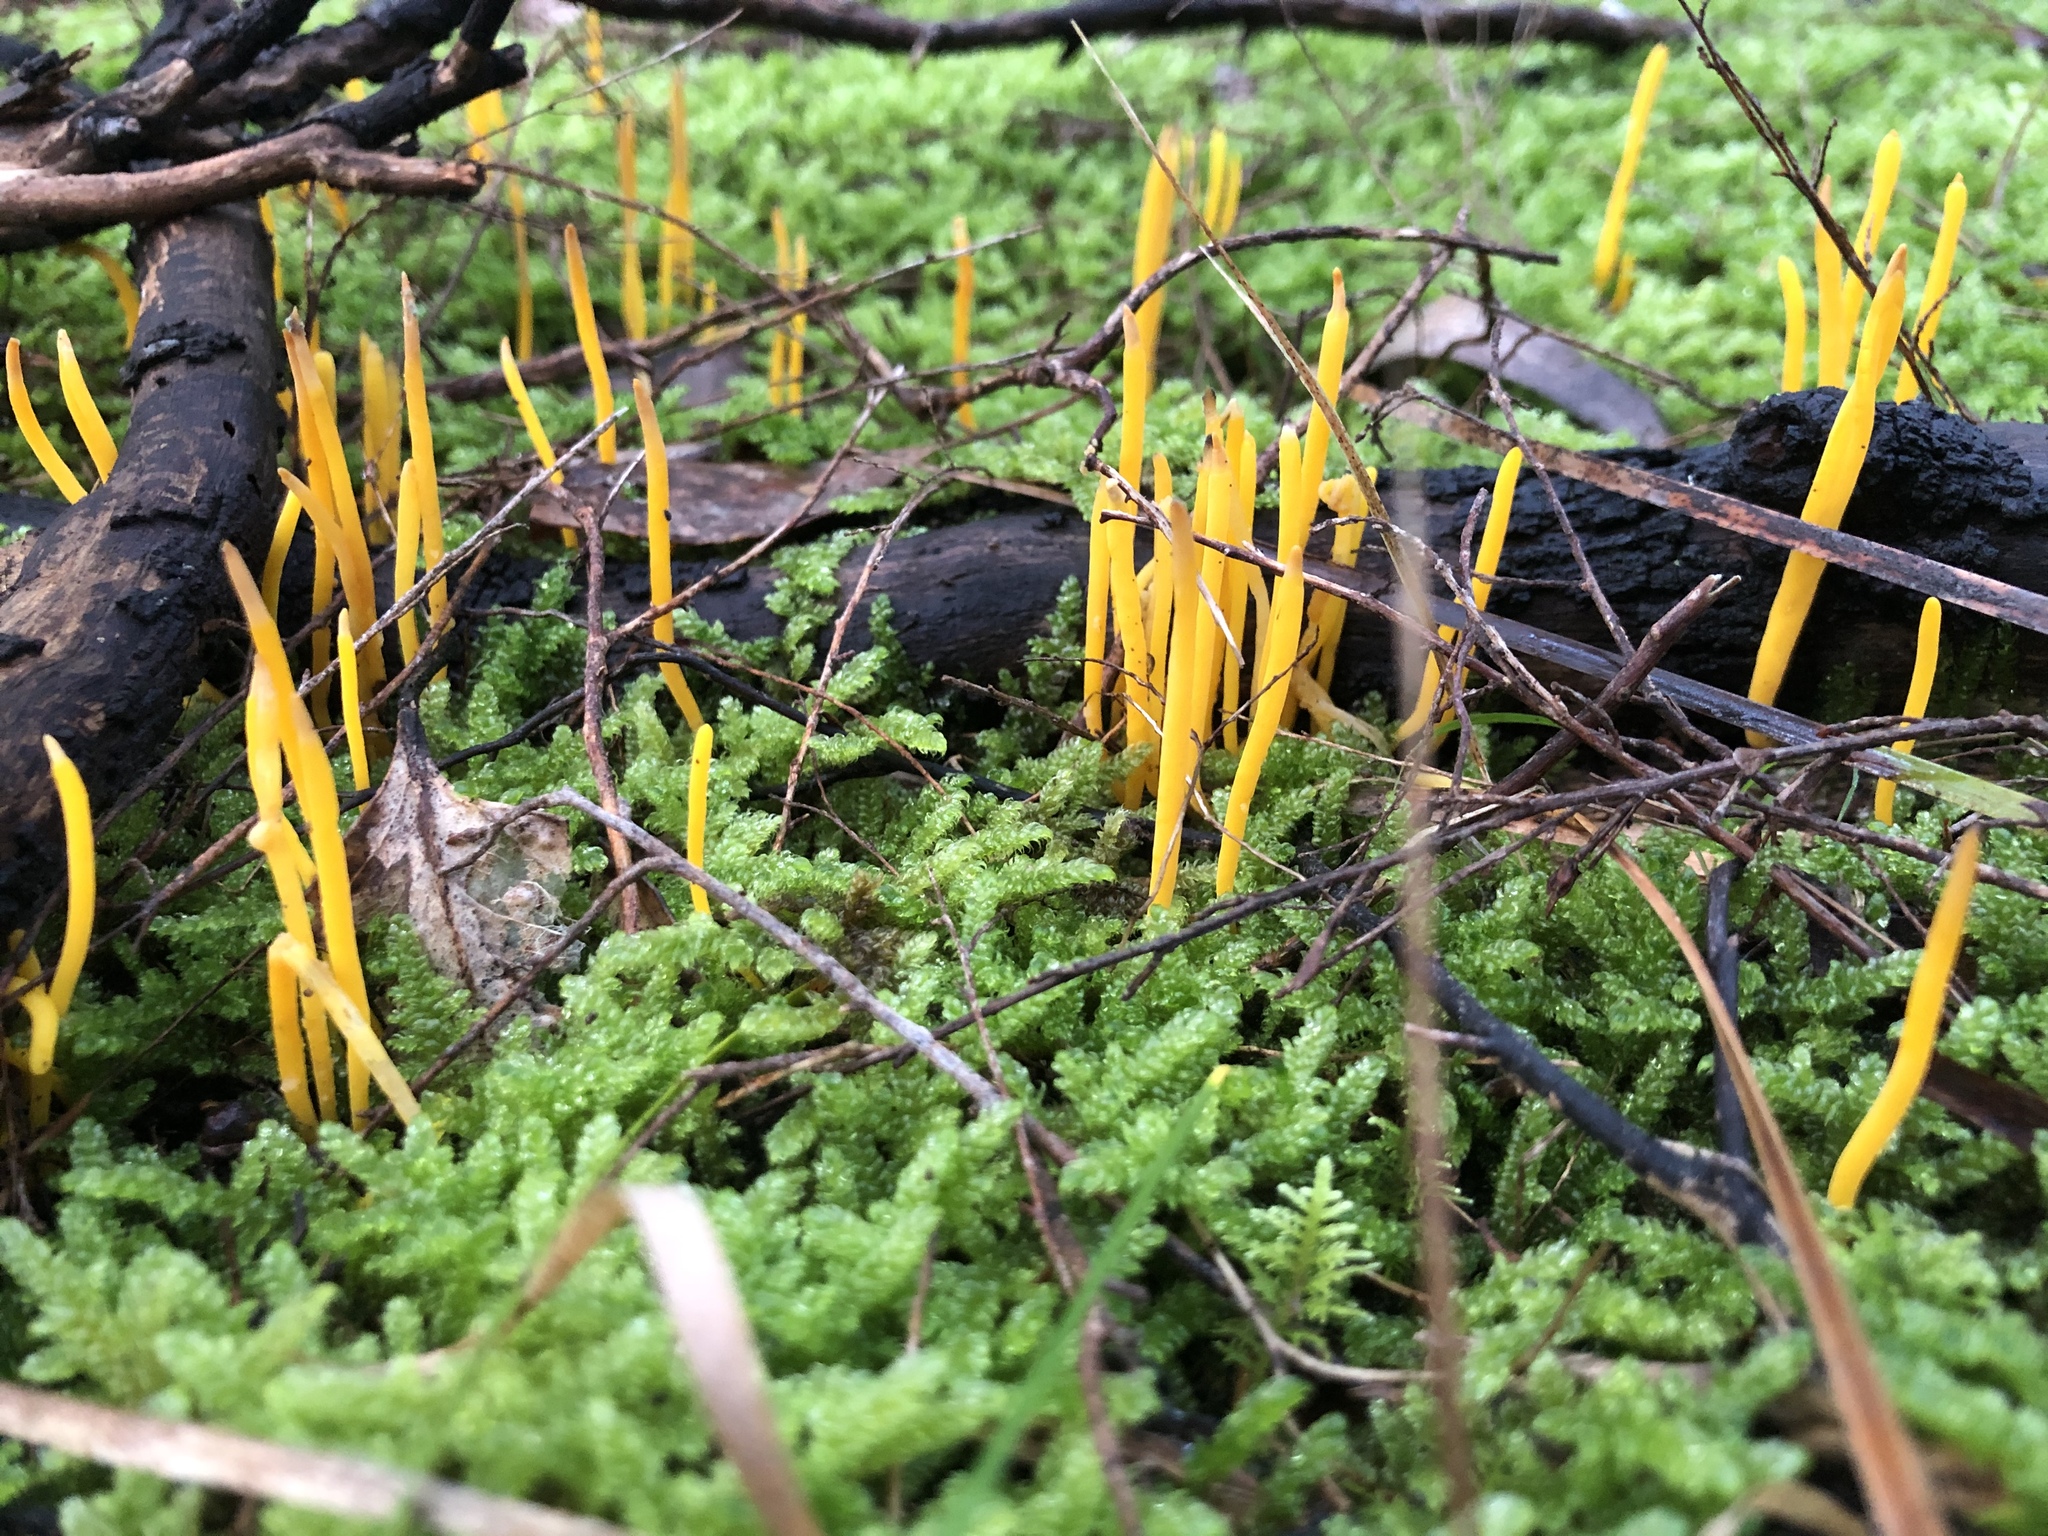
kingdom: Fungi
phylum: Basidiomycota
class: Agaricomycetes
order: Agaricales
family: Clavariaceae
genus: Clavulinopsis
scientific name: Clavulinopsis amoena
